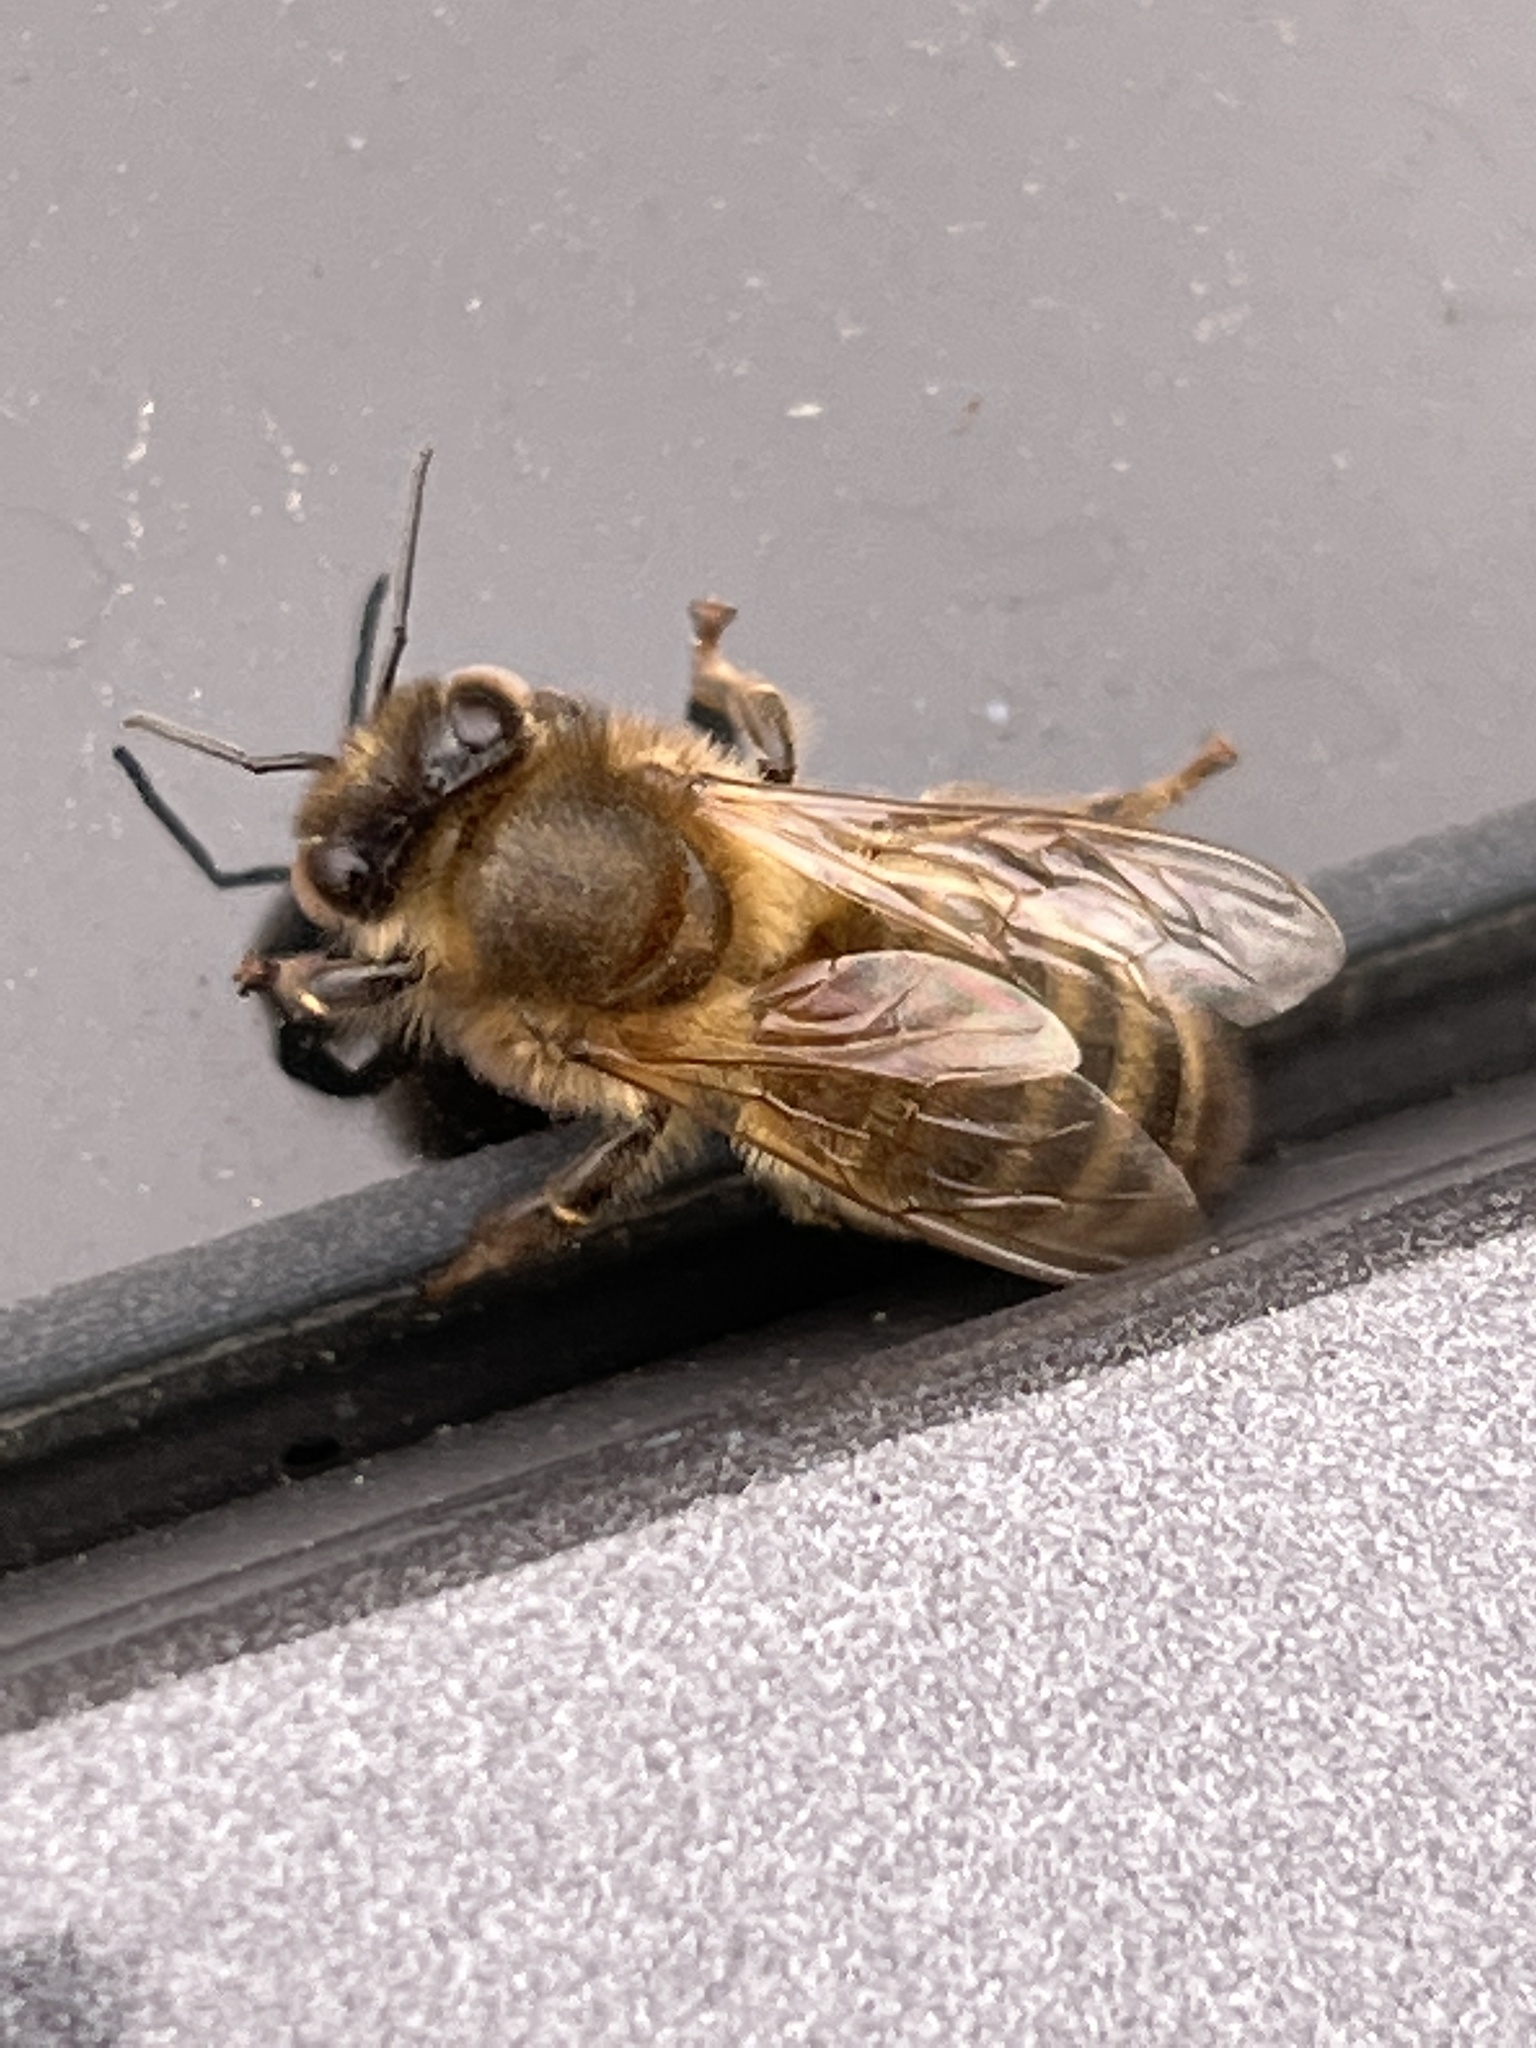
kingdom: Animalia
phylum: Arthropoda
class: Insecta
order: Hymenoptera
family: Apidae
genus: Apis
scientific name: Apis mellifera
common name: Honey bee
